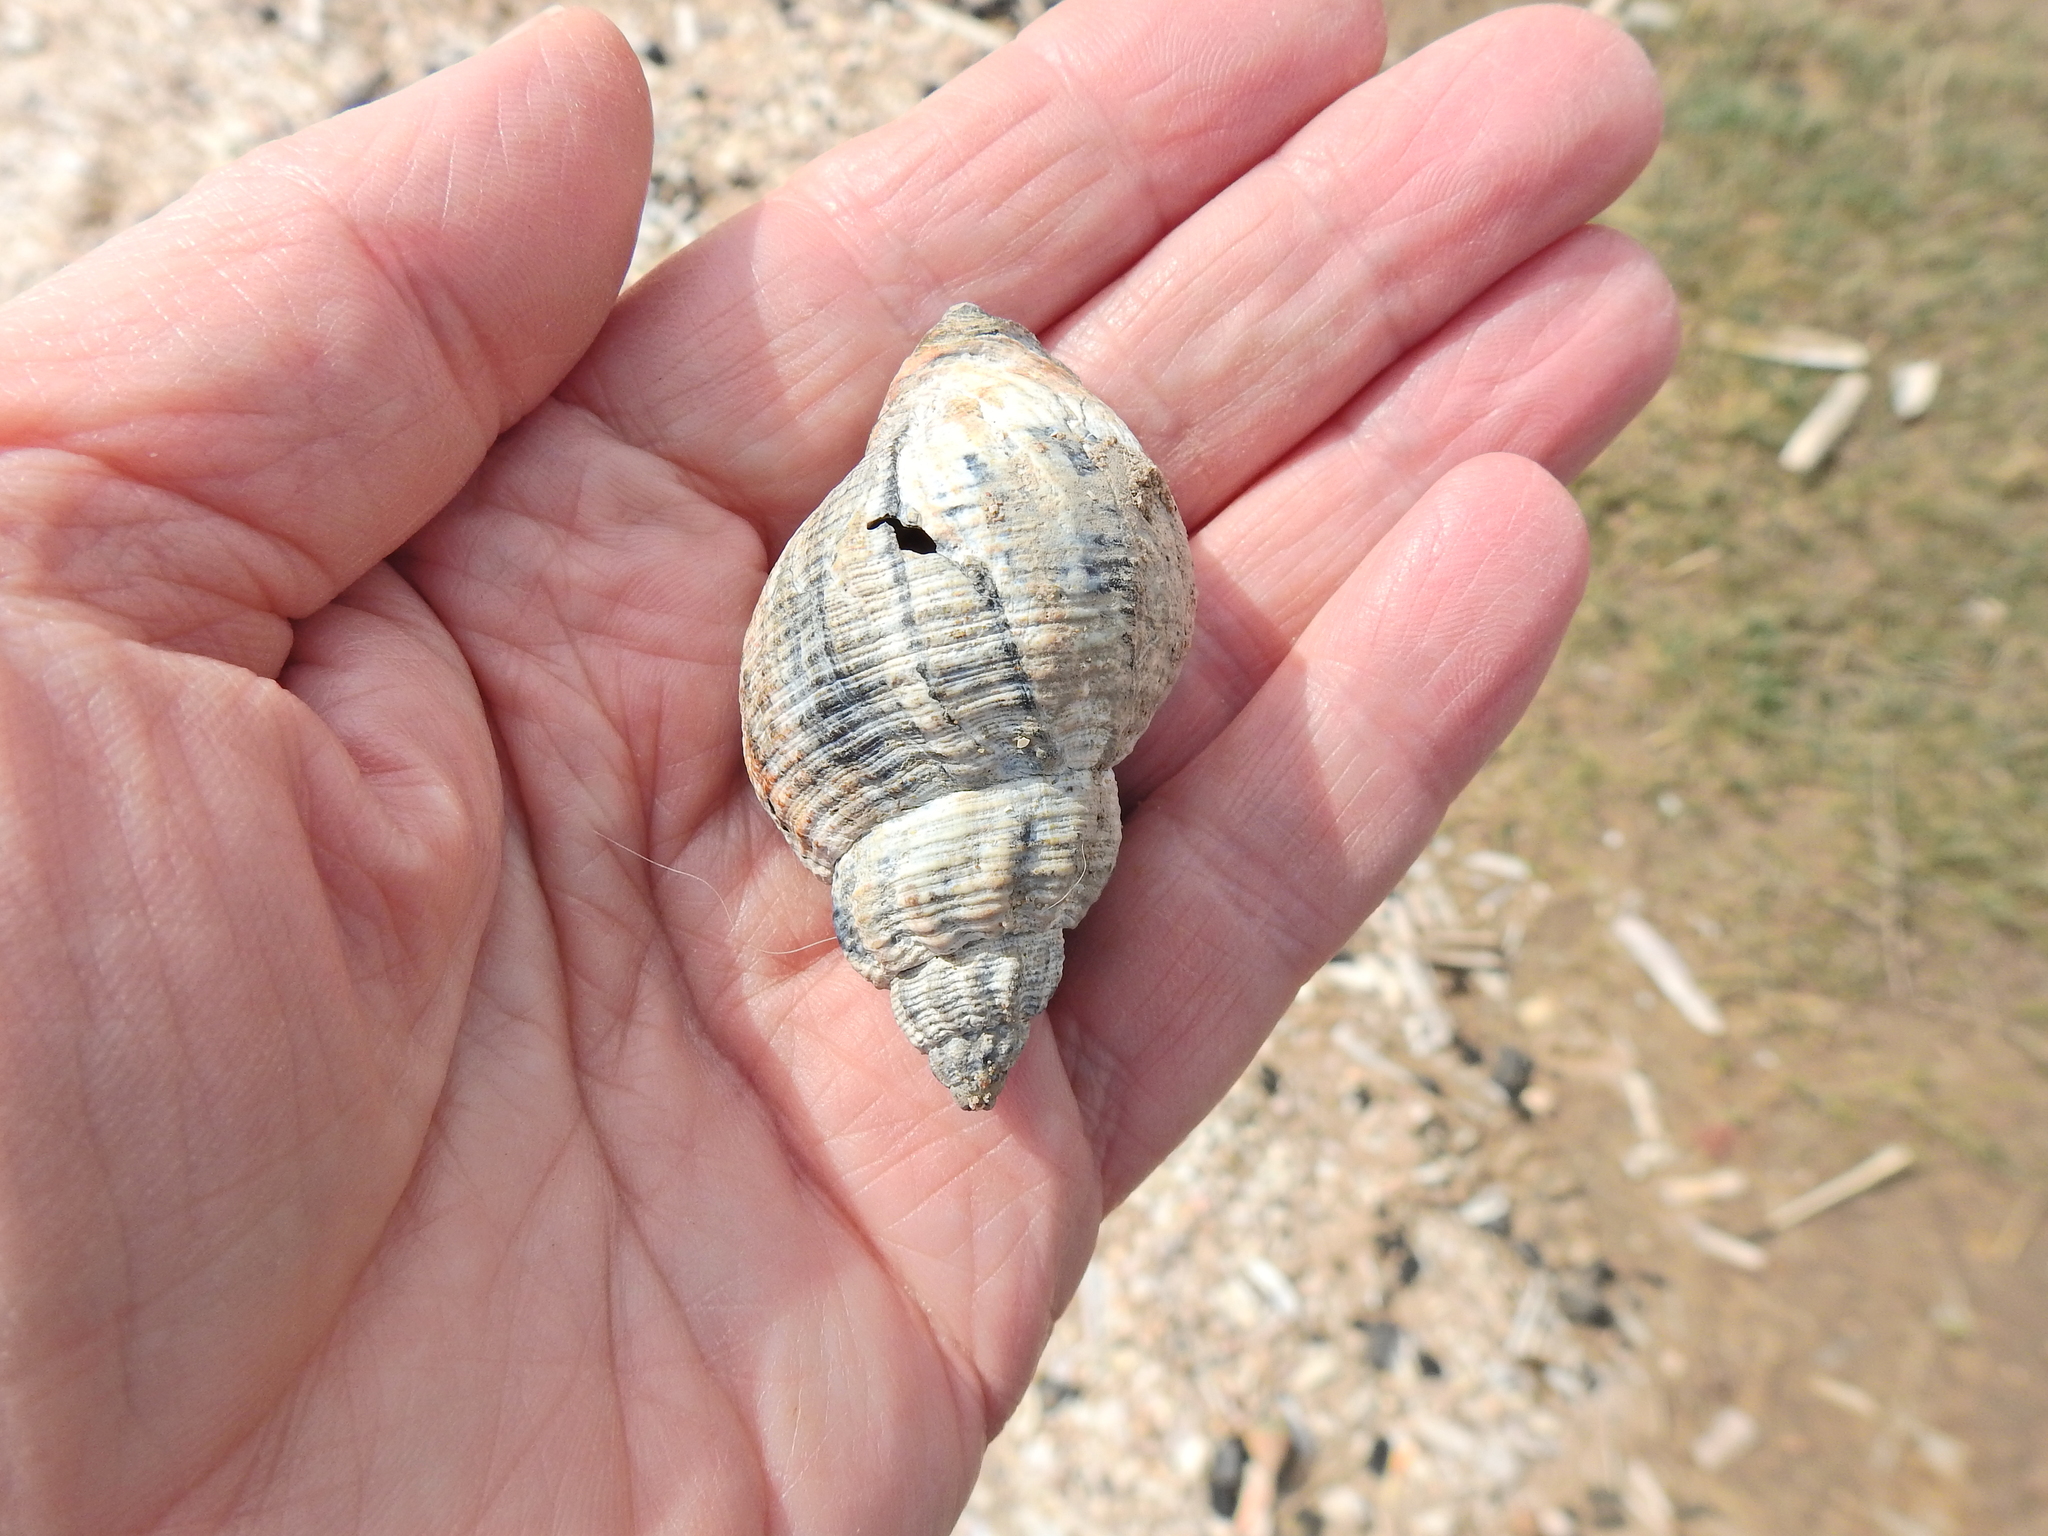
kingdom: Animalia
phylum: Mollusca
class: Gastropoda
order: Neogastropoda
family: Buccinidae
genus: Buccinum
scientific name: Buccinum undatum
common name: Common whelk
